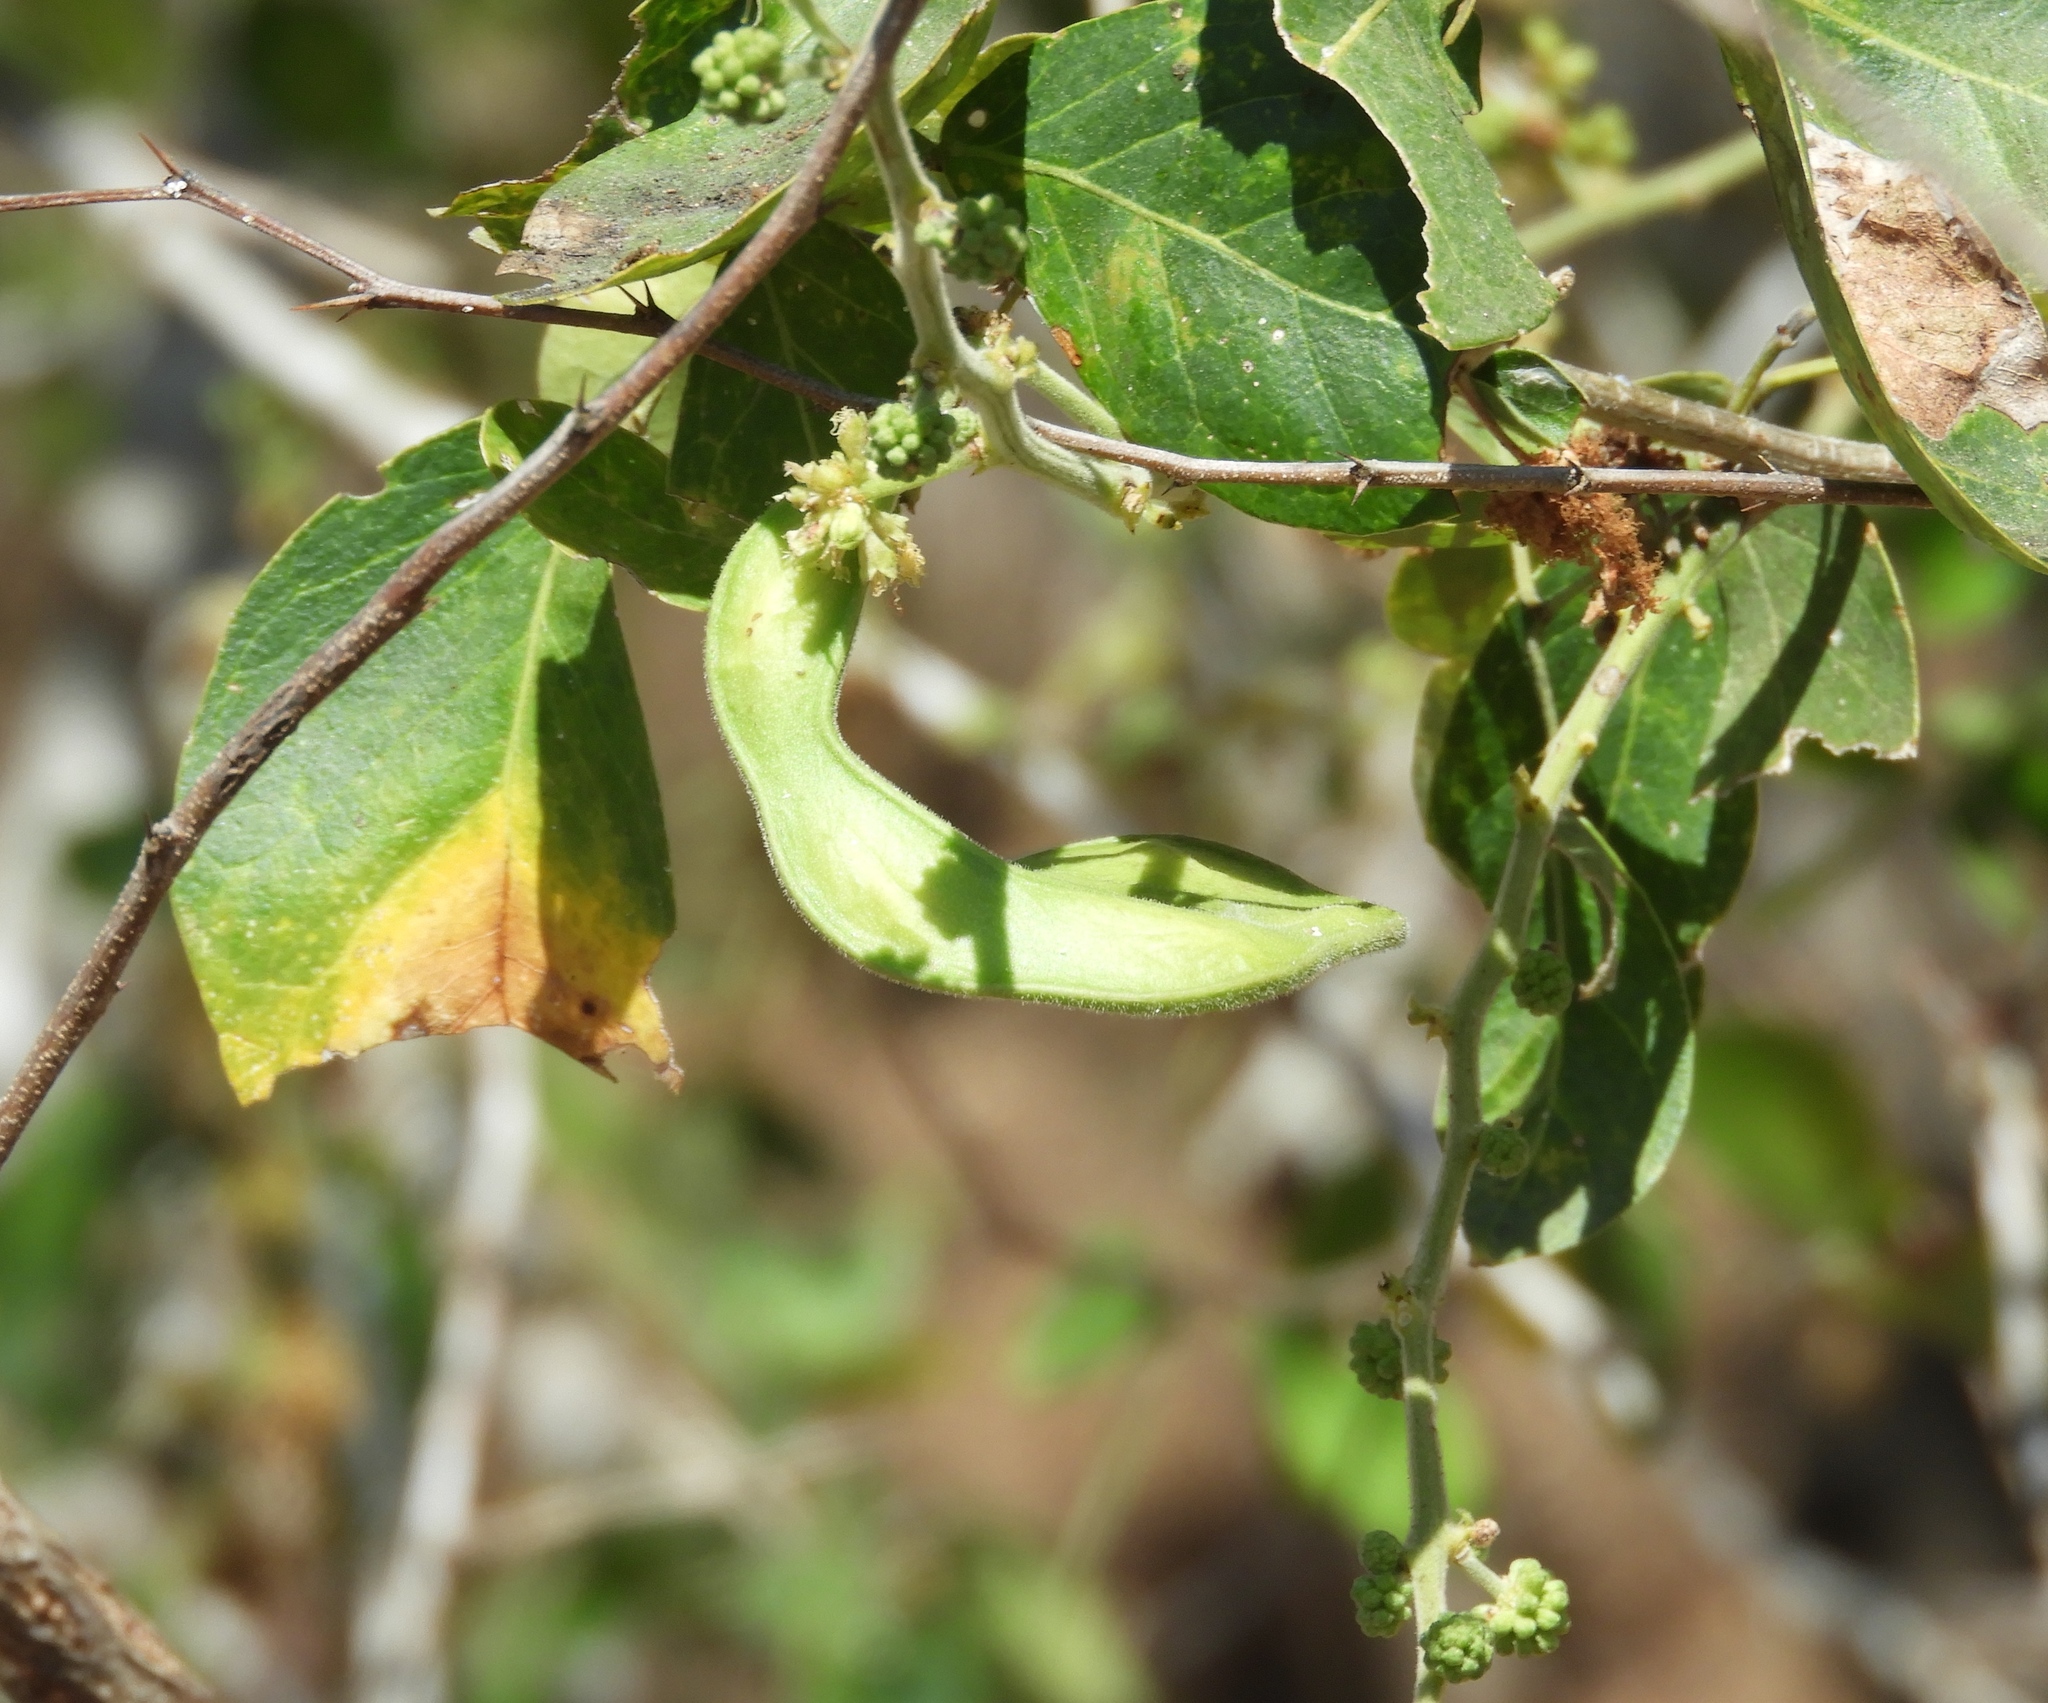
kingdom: Plantae
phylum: Tracheophyta
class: Magnoliopsida
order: Fabales
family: Fabaceae
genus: Pithecellobium
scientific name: Pithecellobium dulce
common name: Monkeypod
